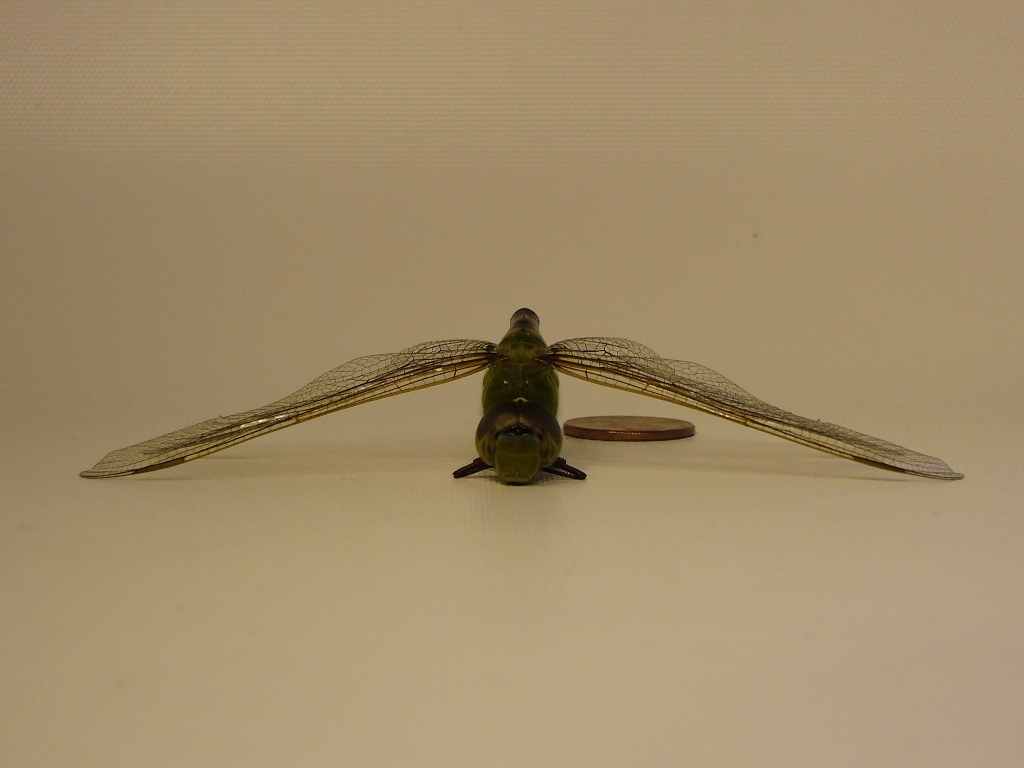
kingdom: Animalia
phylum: Arthropoda
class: Insecta
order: Odonata
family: Aeshnidae
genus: Anax
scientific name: Anax junius
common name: Common green darner
